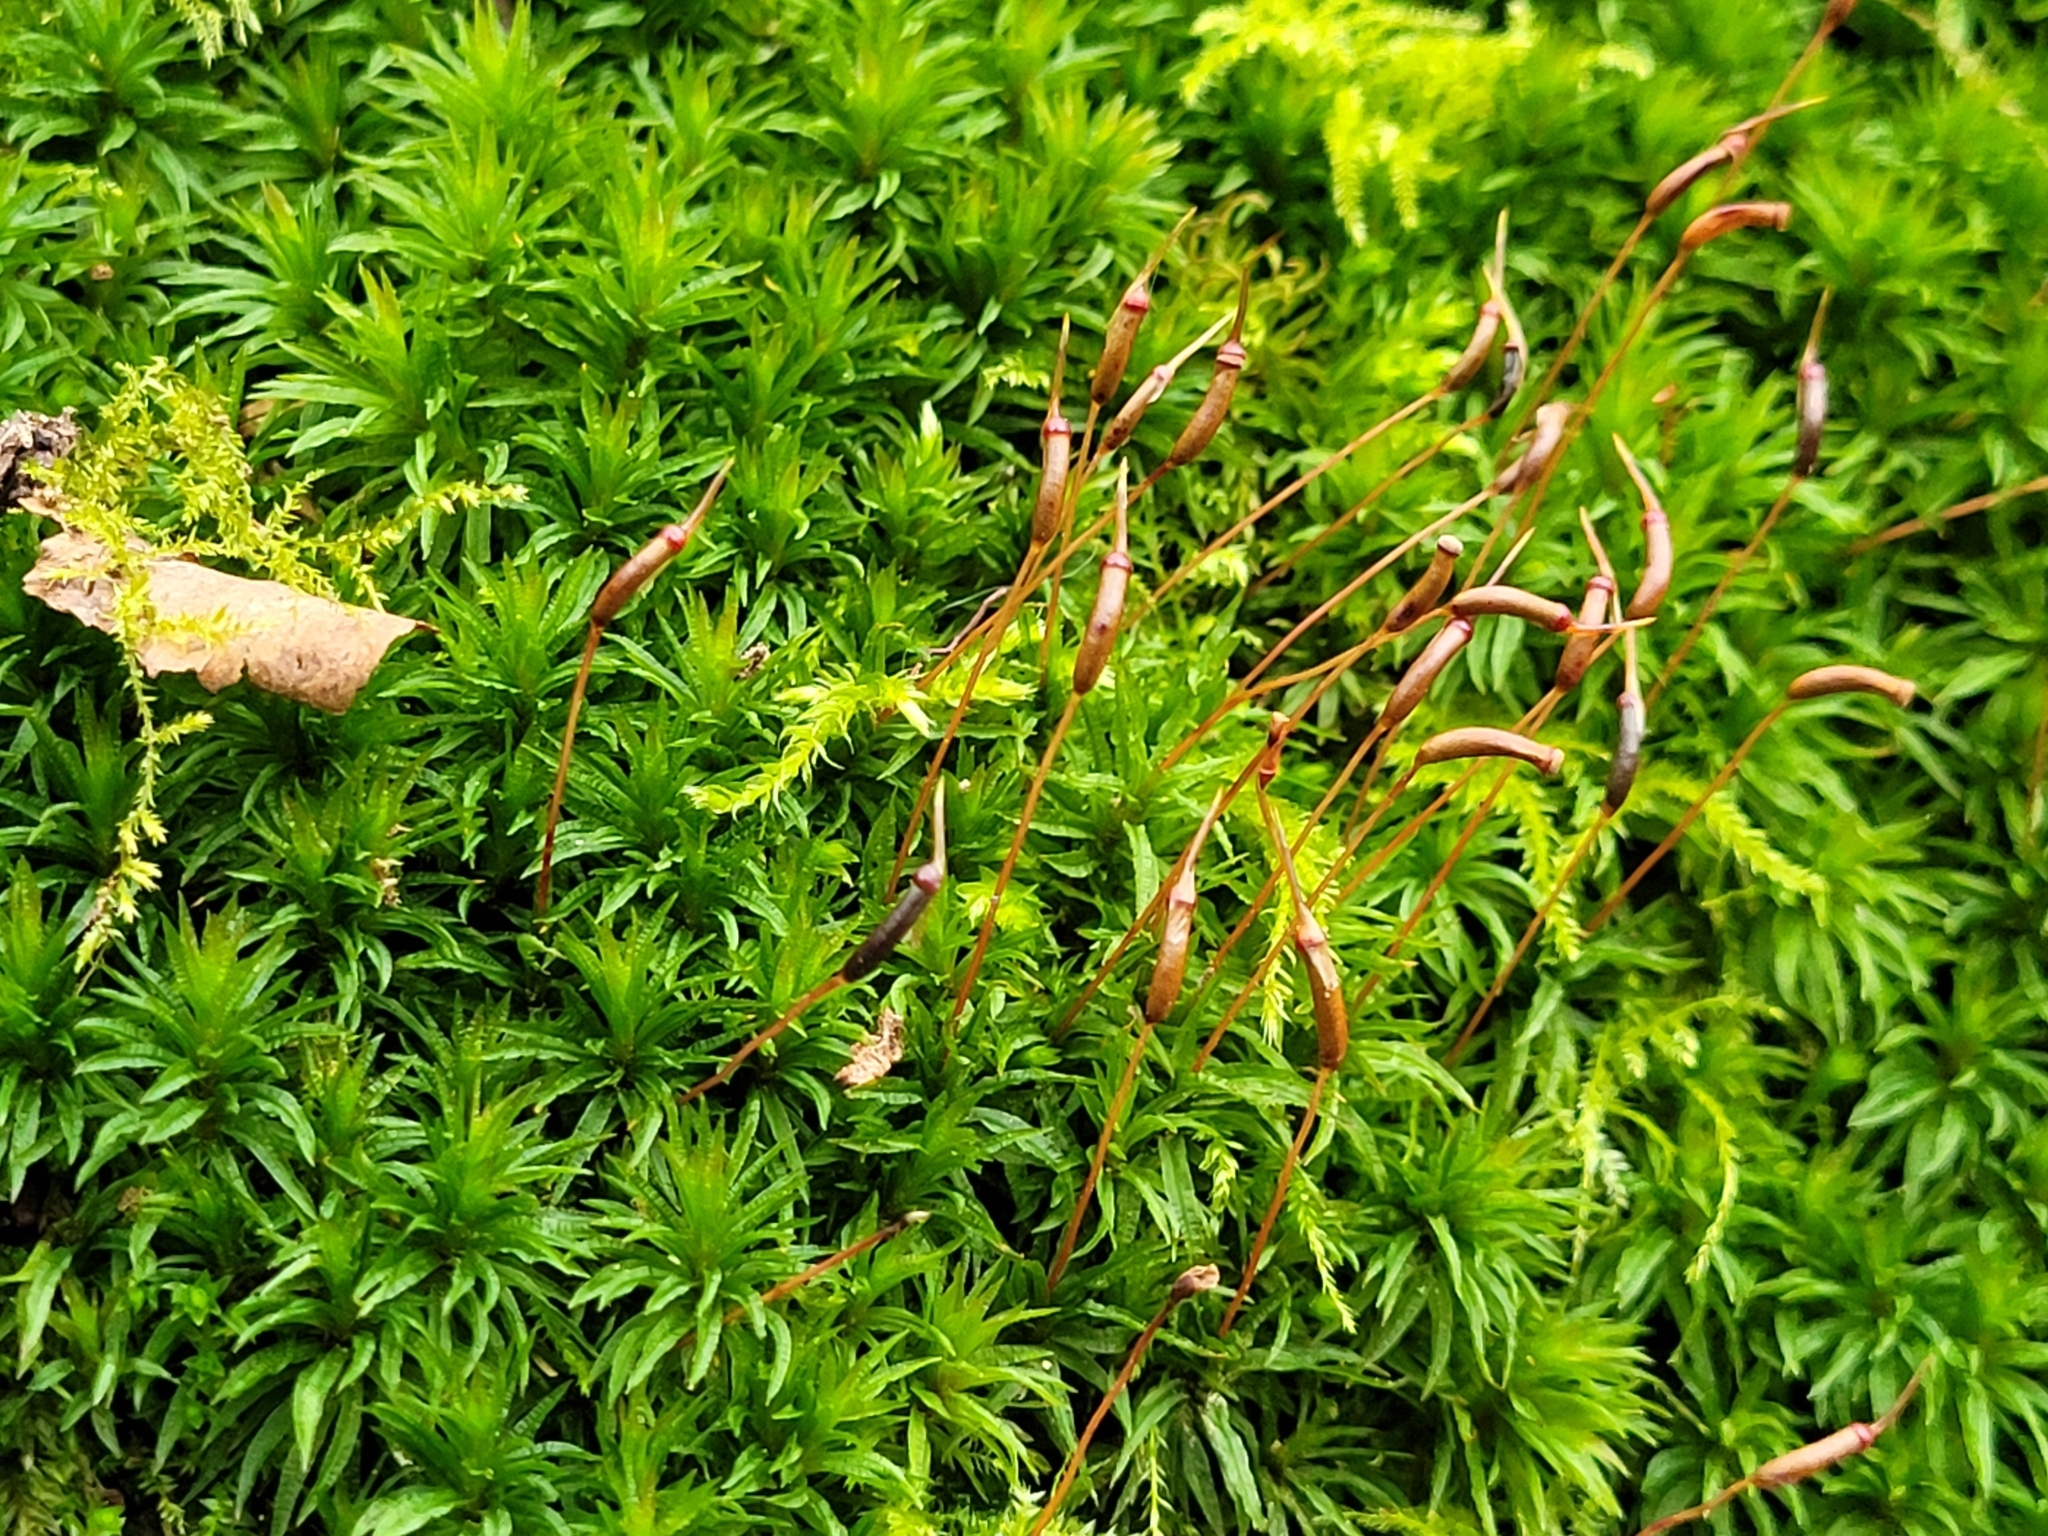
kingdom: Plantae
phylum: Bryophyta
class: Polytrichopsida
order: Polytrichales
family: Polytrichaceae
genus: Atrichum
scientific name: Atrichum undulatum
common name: Common smoothcap
